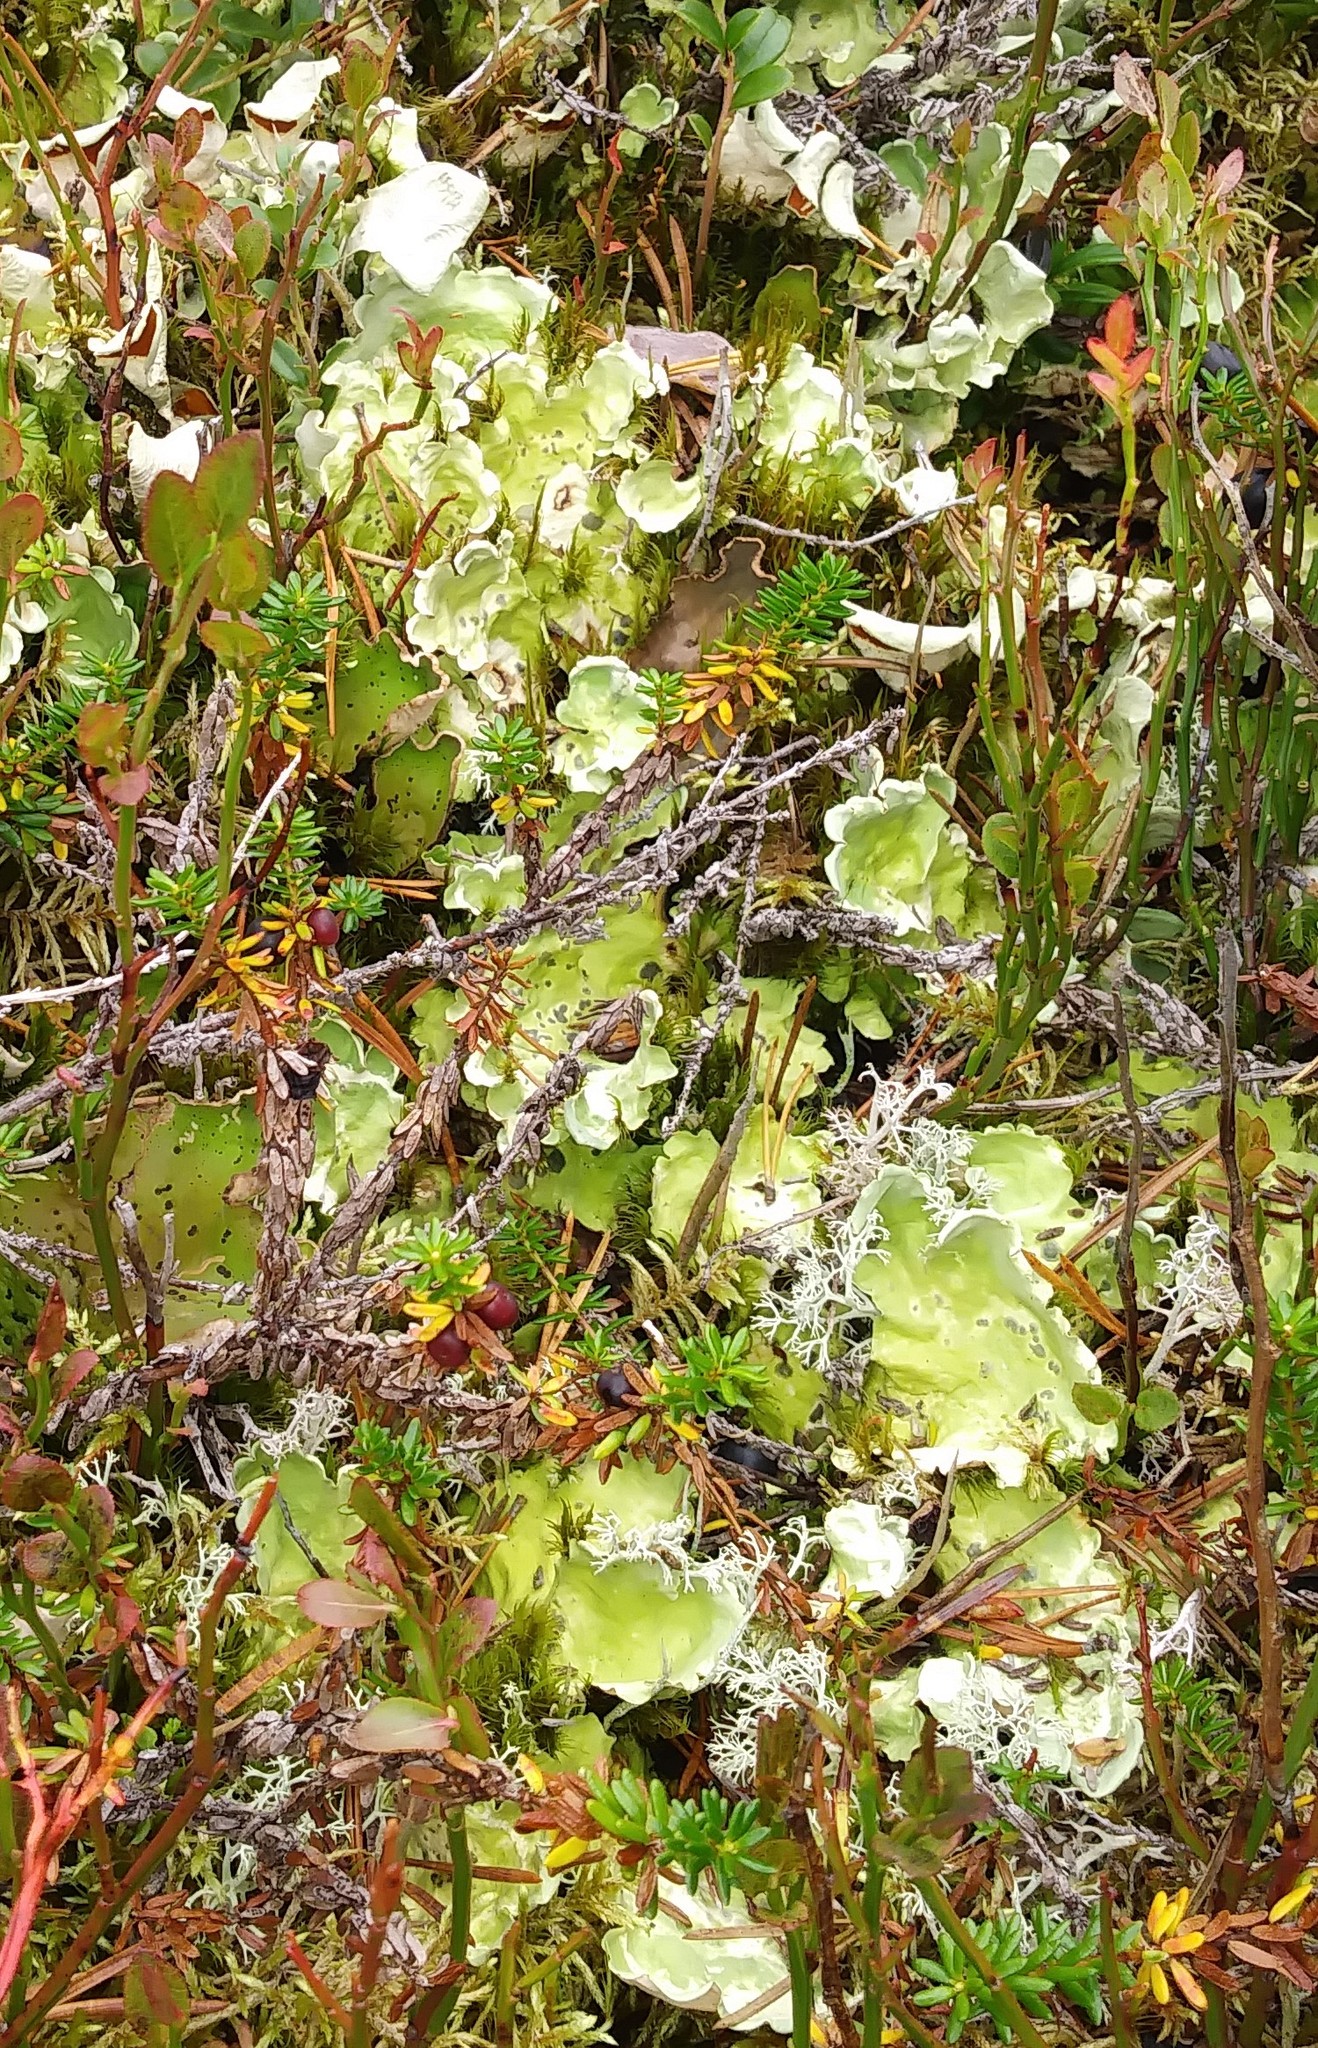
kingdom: Fungi
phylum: Ascomycota
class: Lecanoromycetes
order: Peltigerales
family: Nephromataceae
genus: Nephroma
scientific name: Nephroma arcticum
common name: Arctic kidney-lichen
